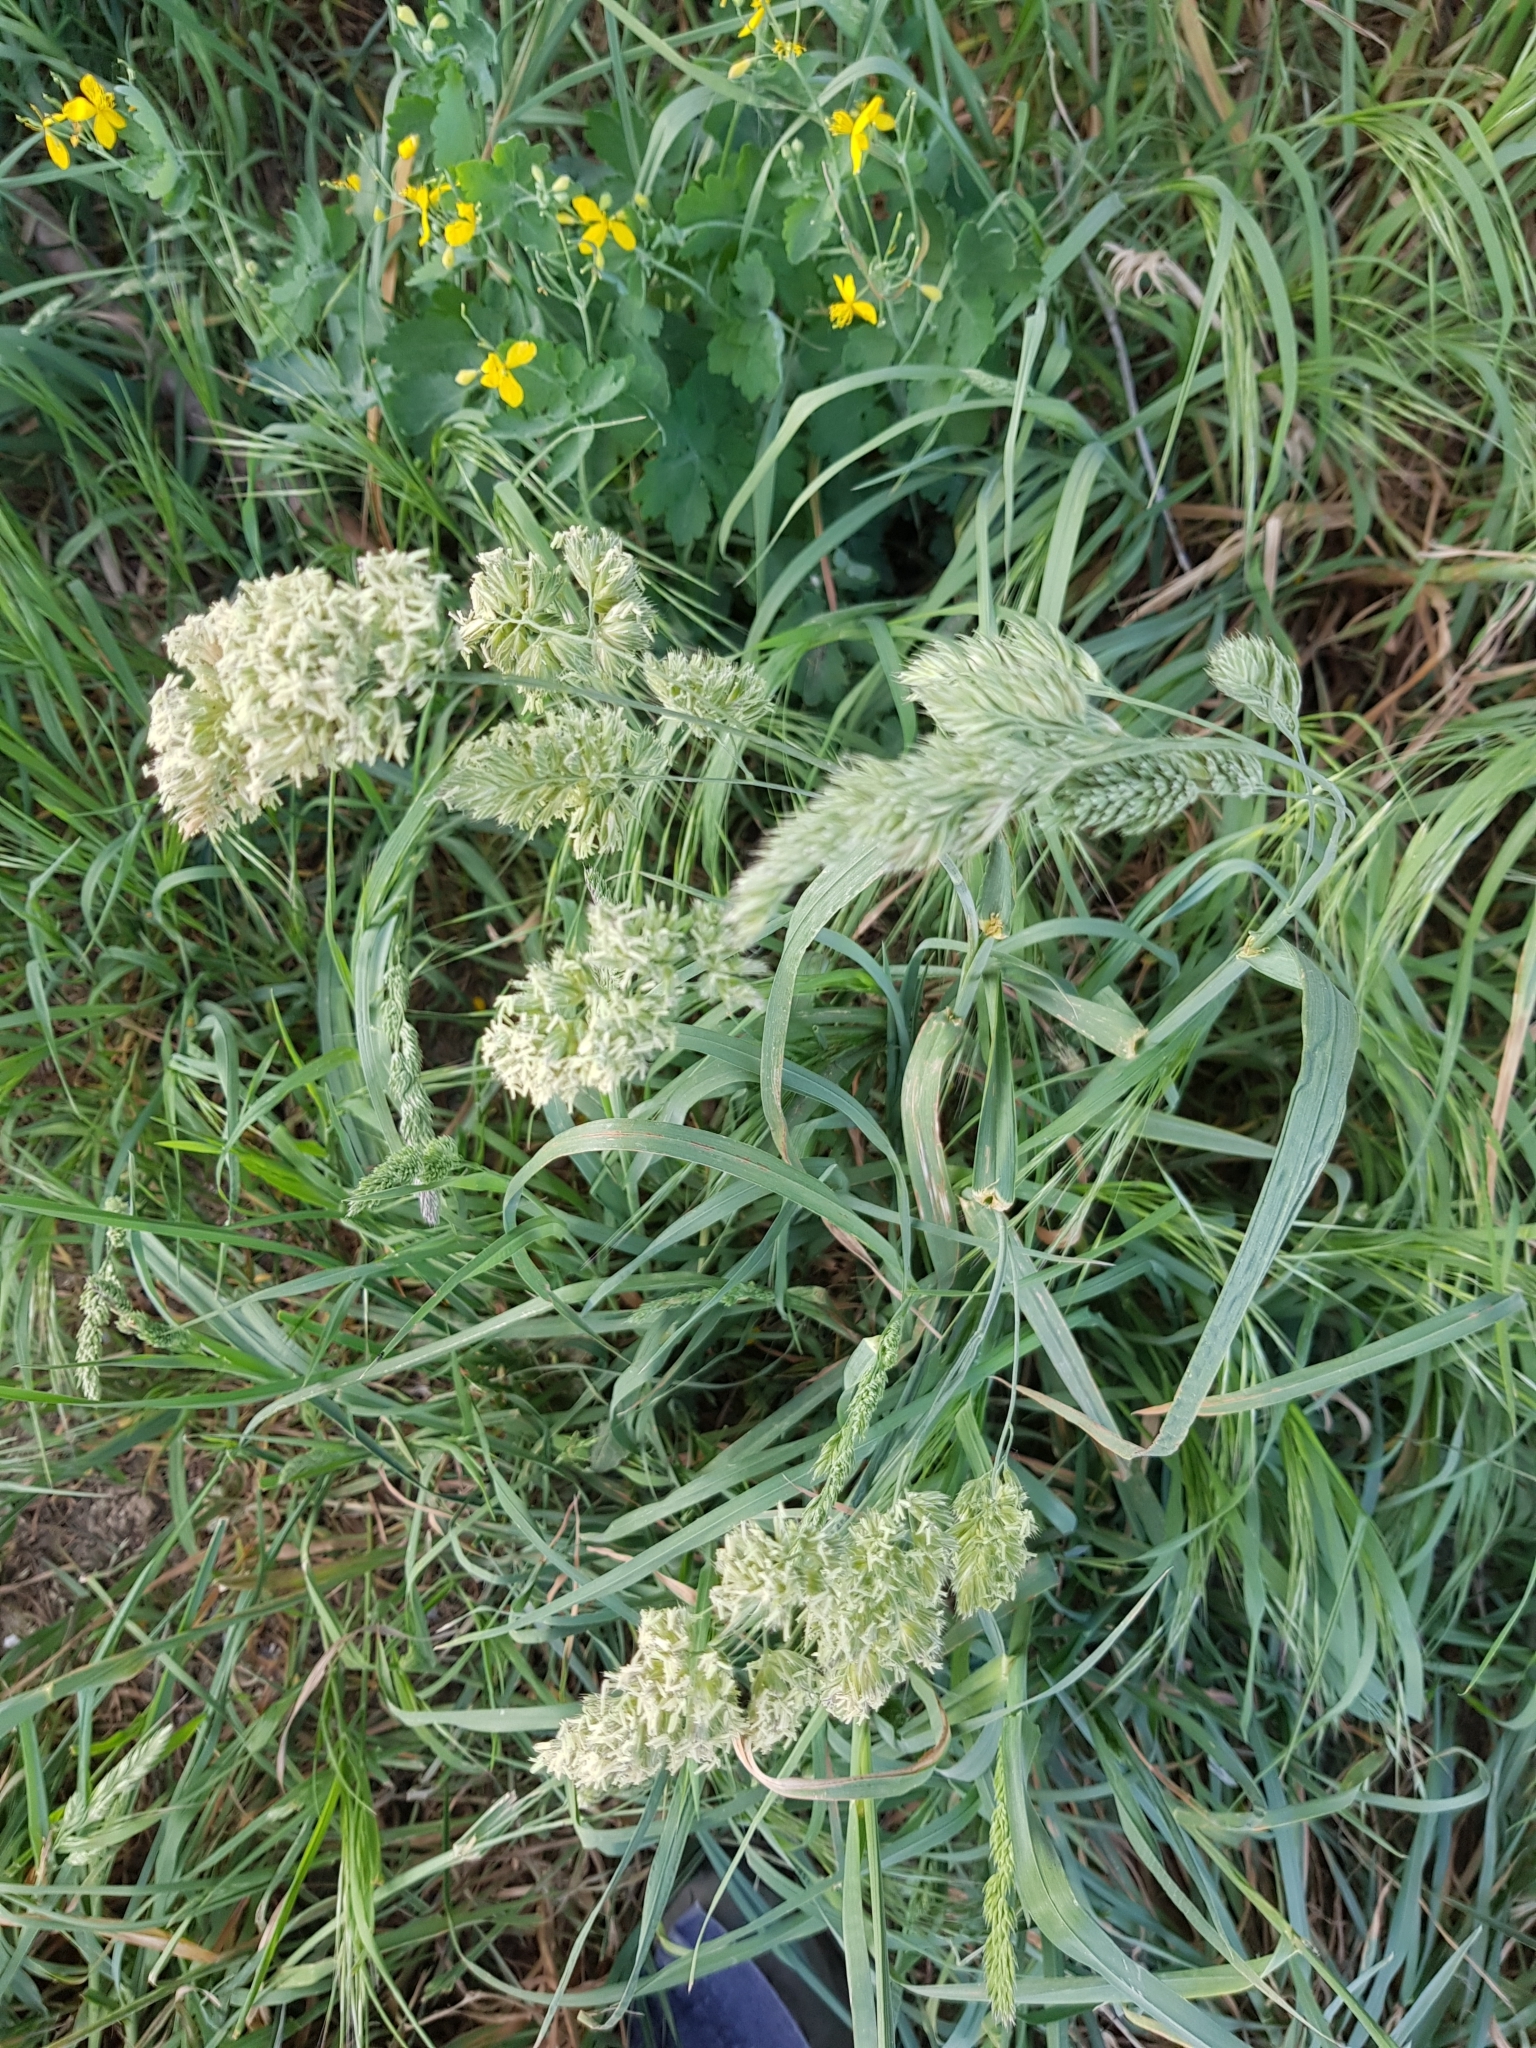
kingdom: Plantae
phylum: Tracheophyta
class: Liliopsida
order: Poales
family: Poaceae
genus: Dactylis
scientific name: Dactylis glomerata
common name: Orchardgrass
